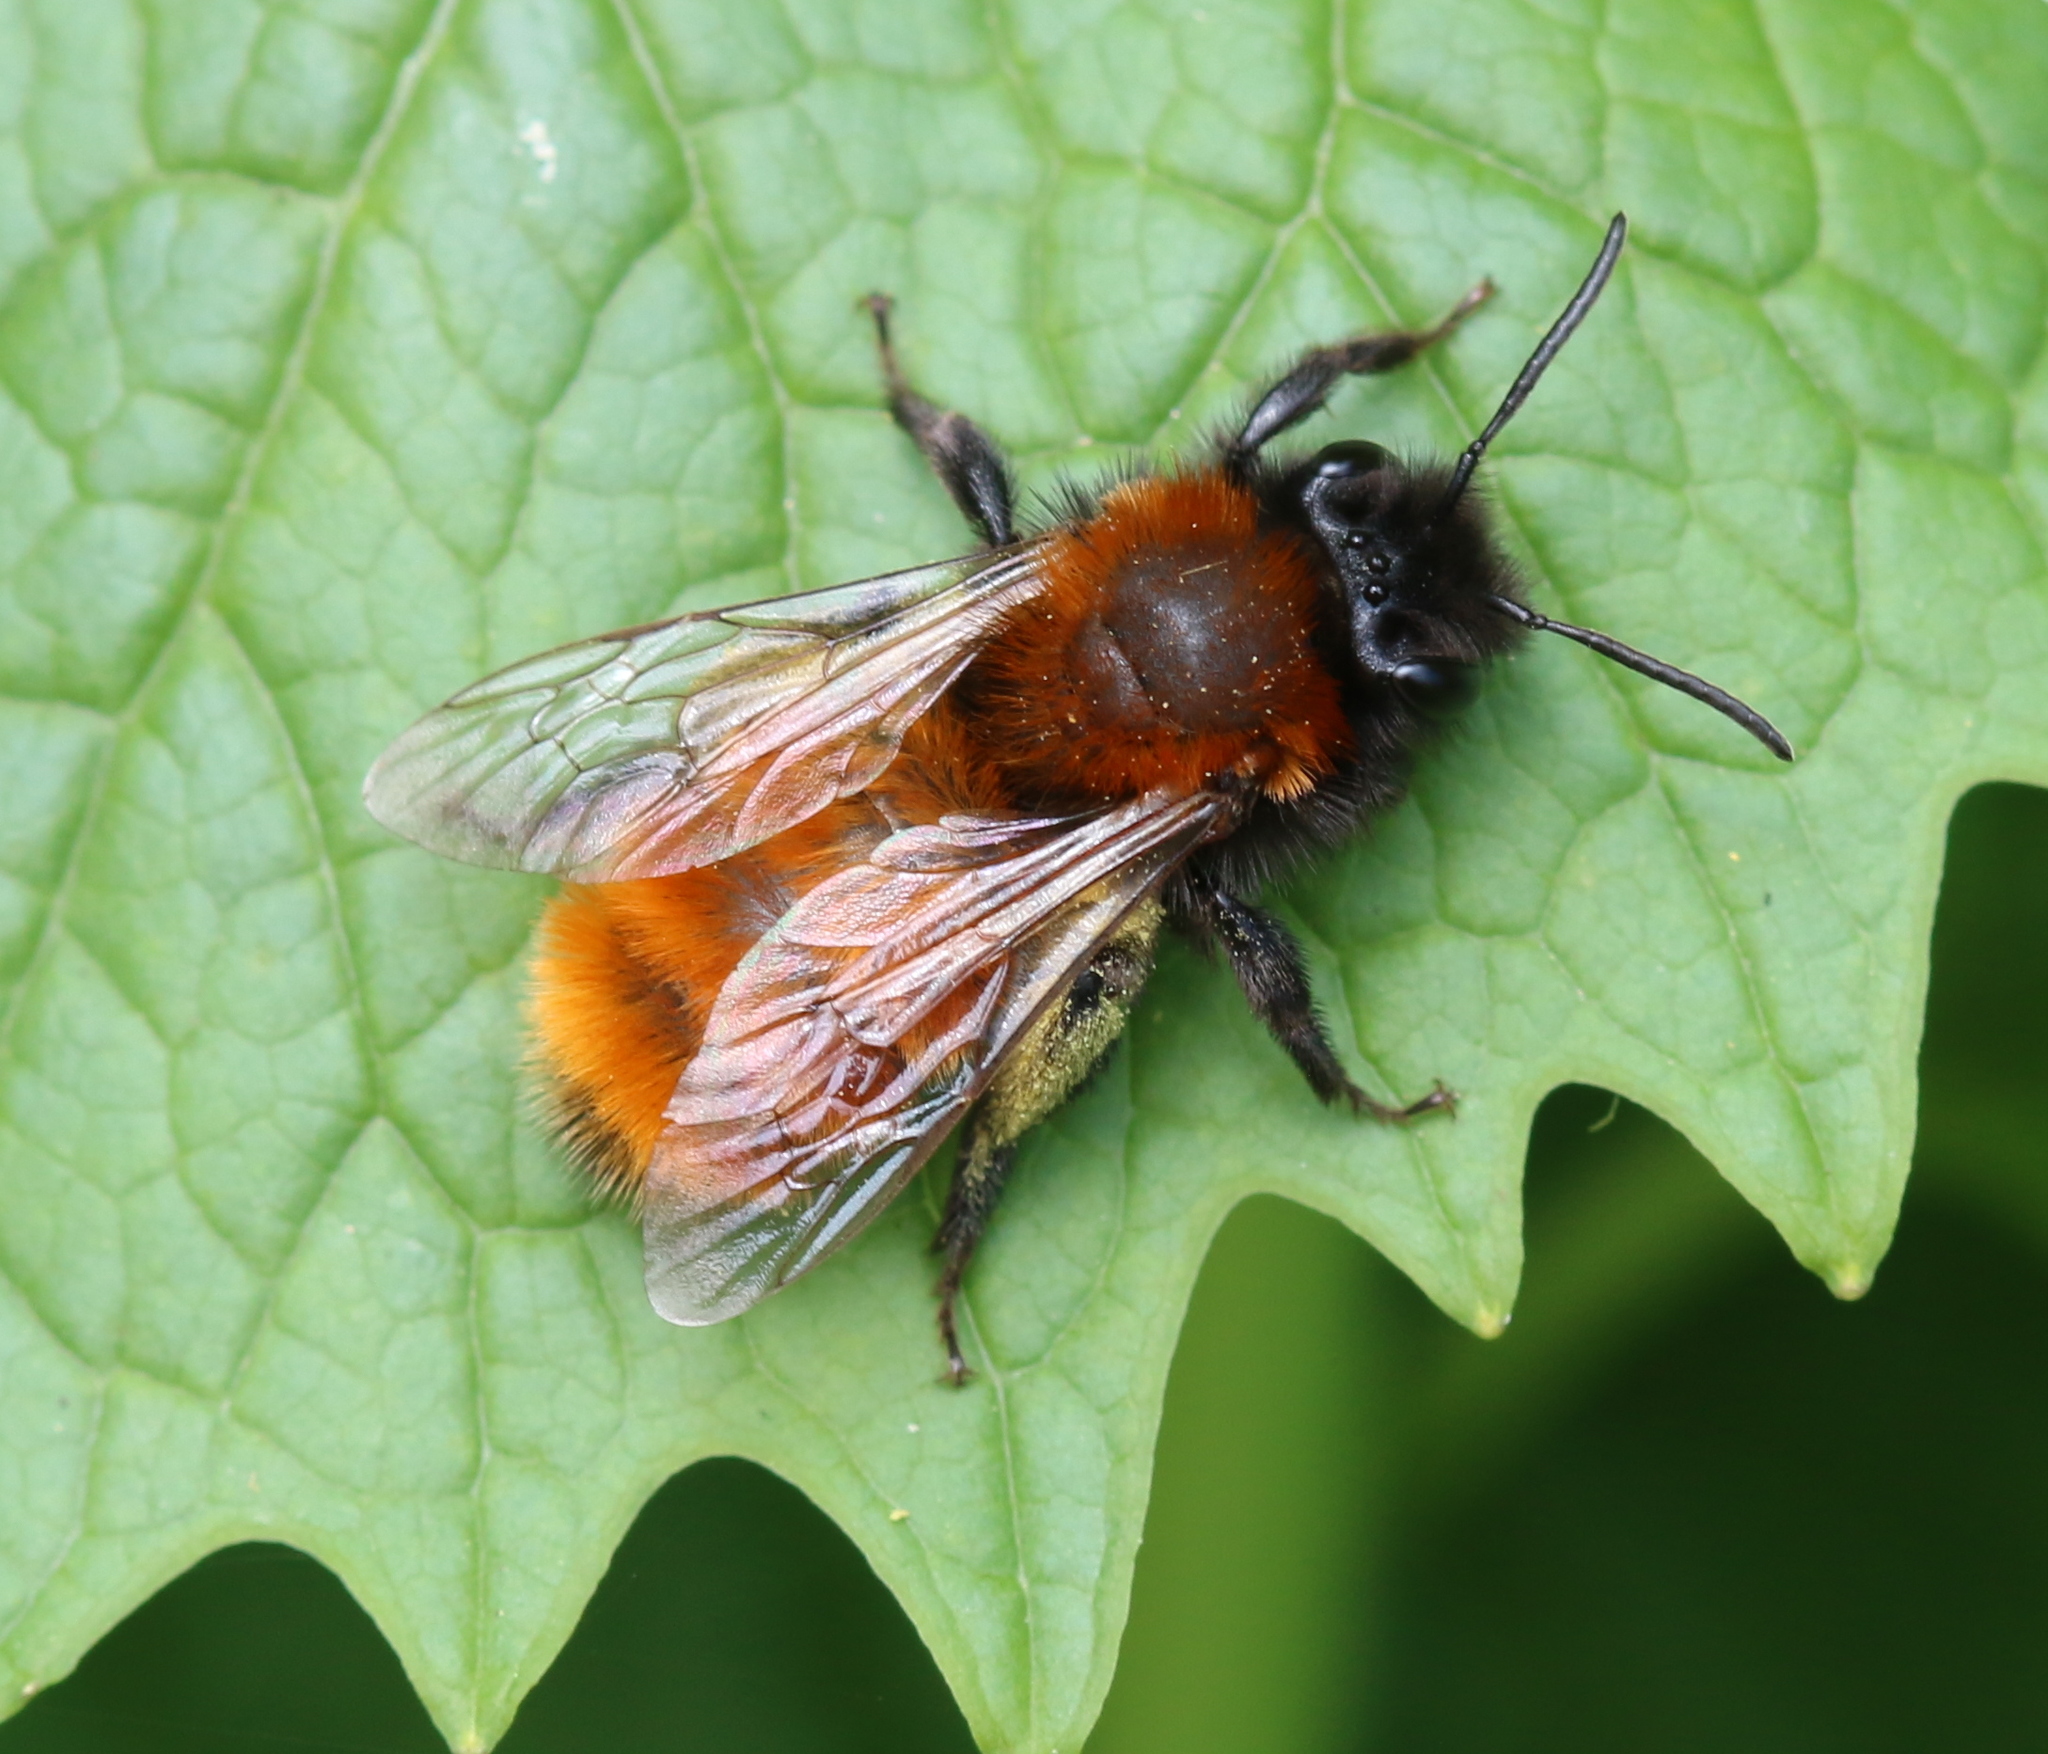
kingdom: Animalia
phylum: Arthropoda
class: Insecta
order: Hymenoptera
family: Andrenidae
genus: Andrena
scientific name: Andrena fulva
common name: Tawny mining bee
